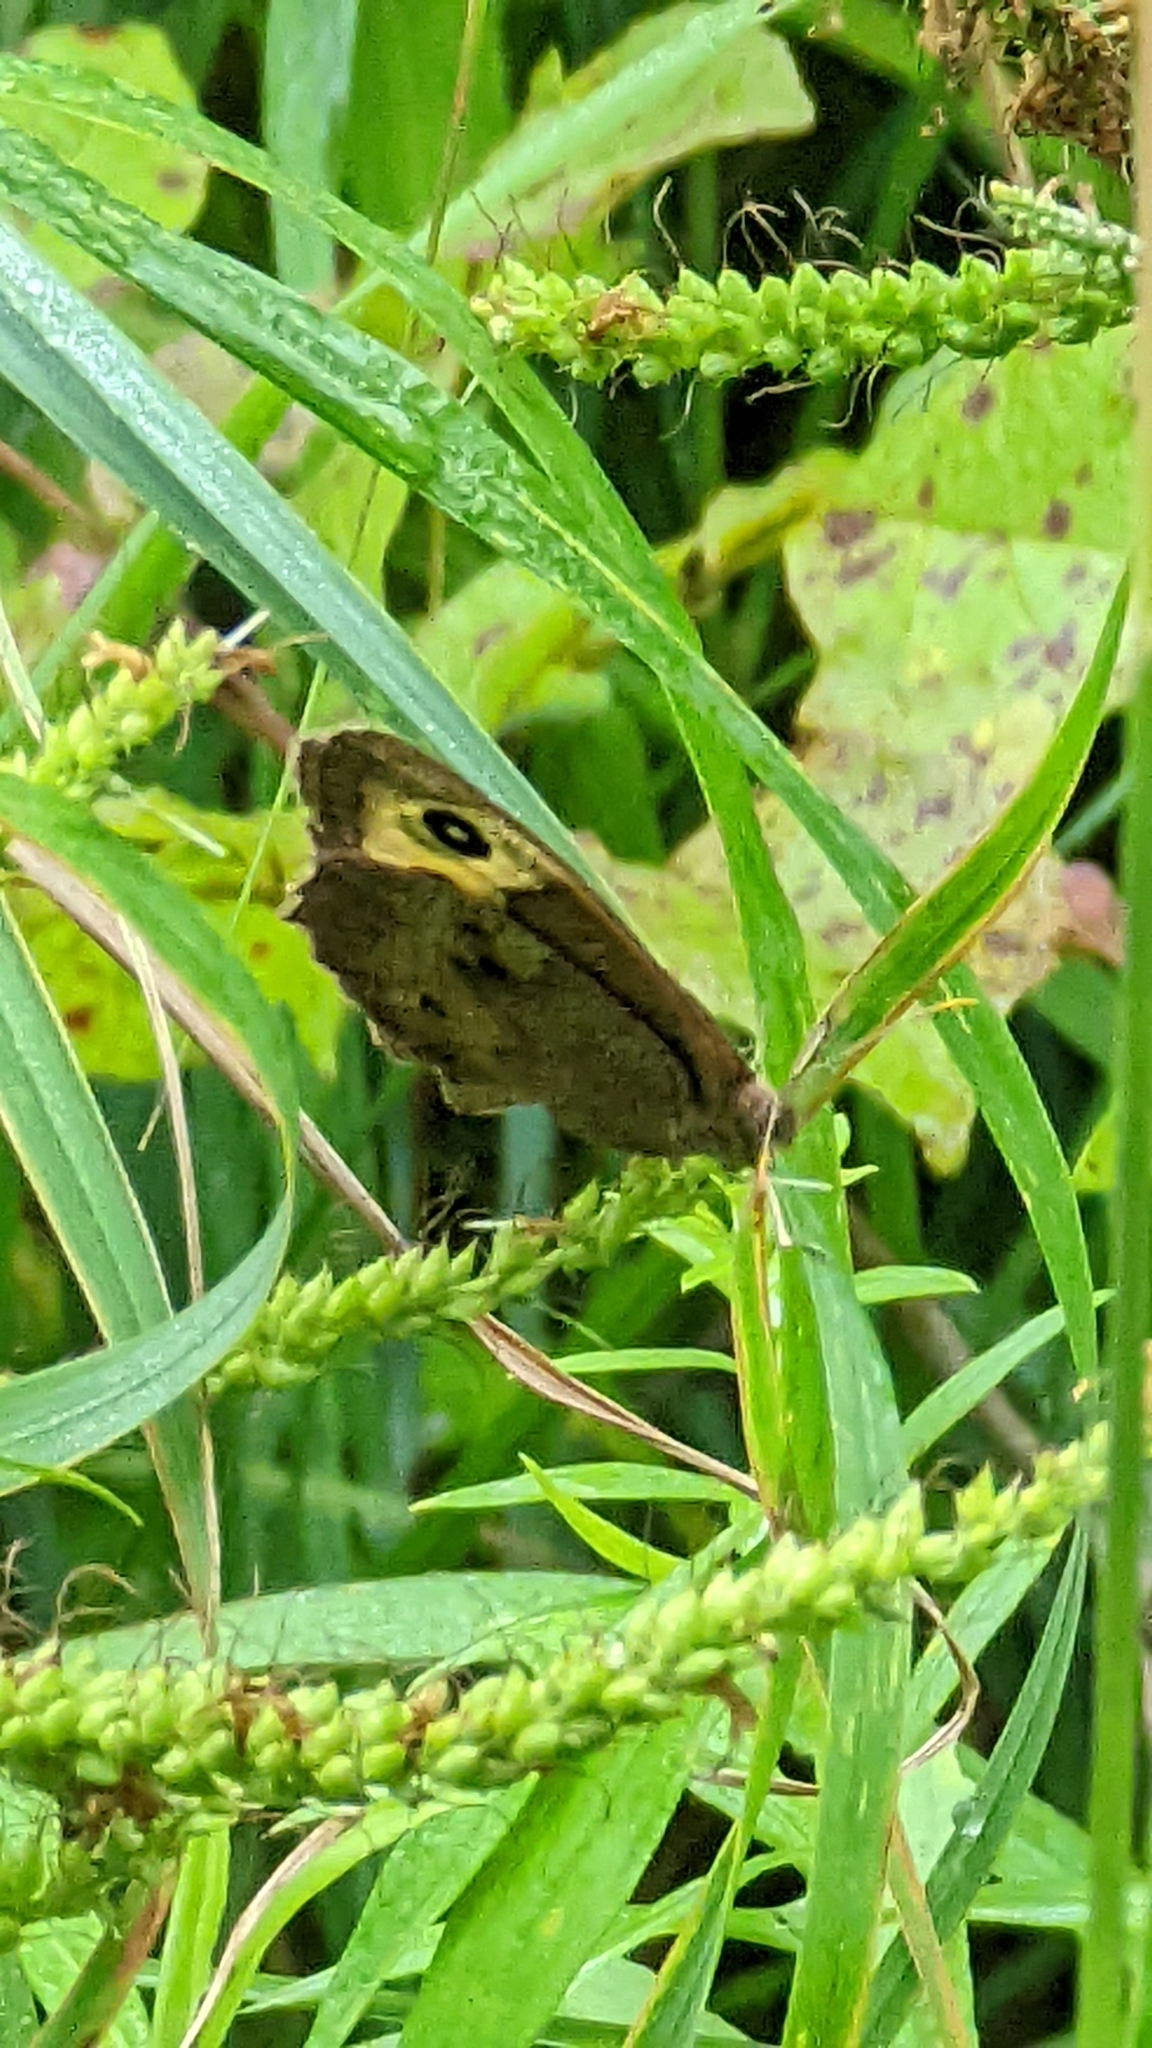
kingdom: Animalia
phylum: Arthropoda
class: Insecta
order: Lepidoptera
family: Nymphalidae
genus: Cercyonis
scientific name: Cercyonis pegala
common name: Common wood-nymph
